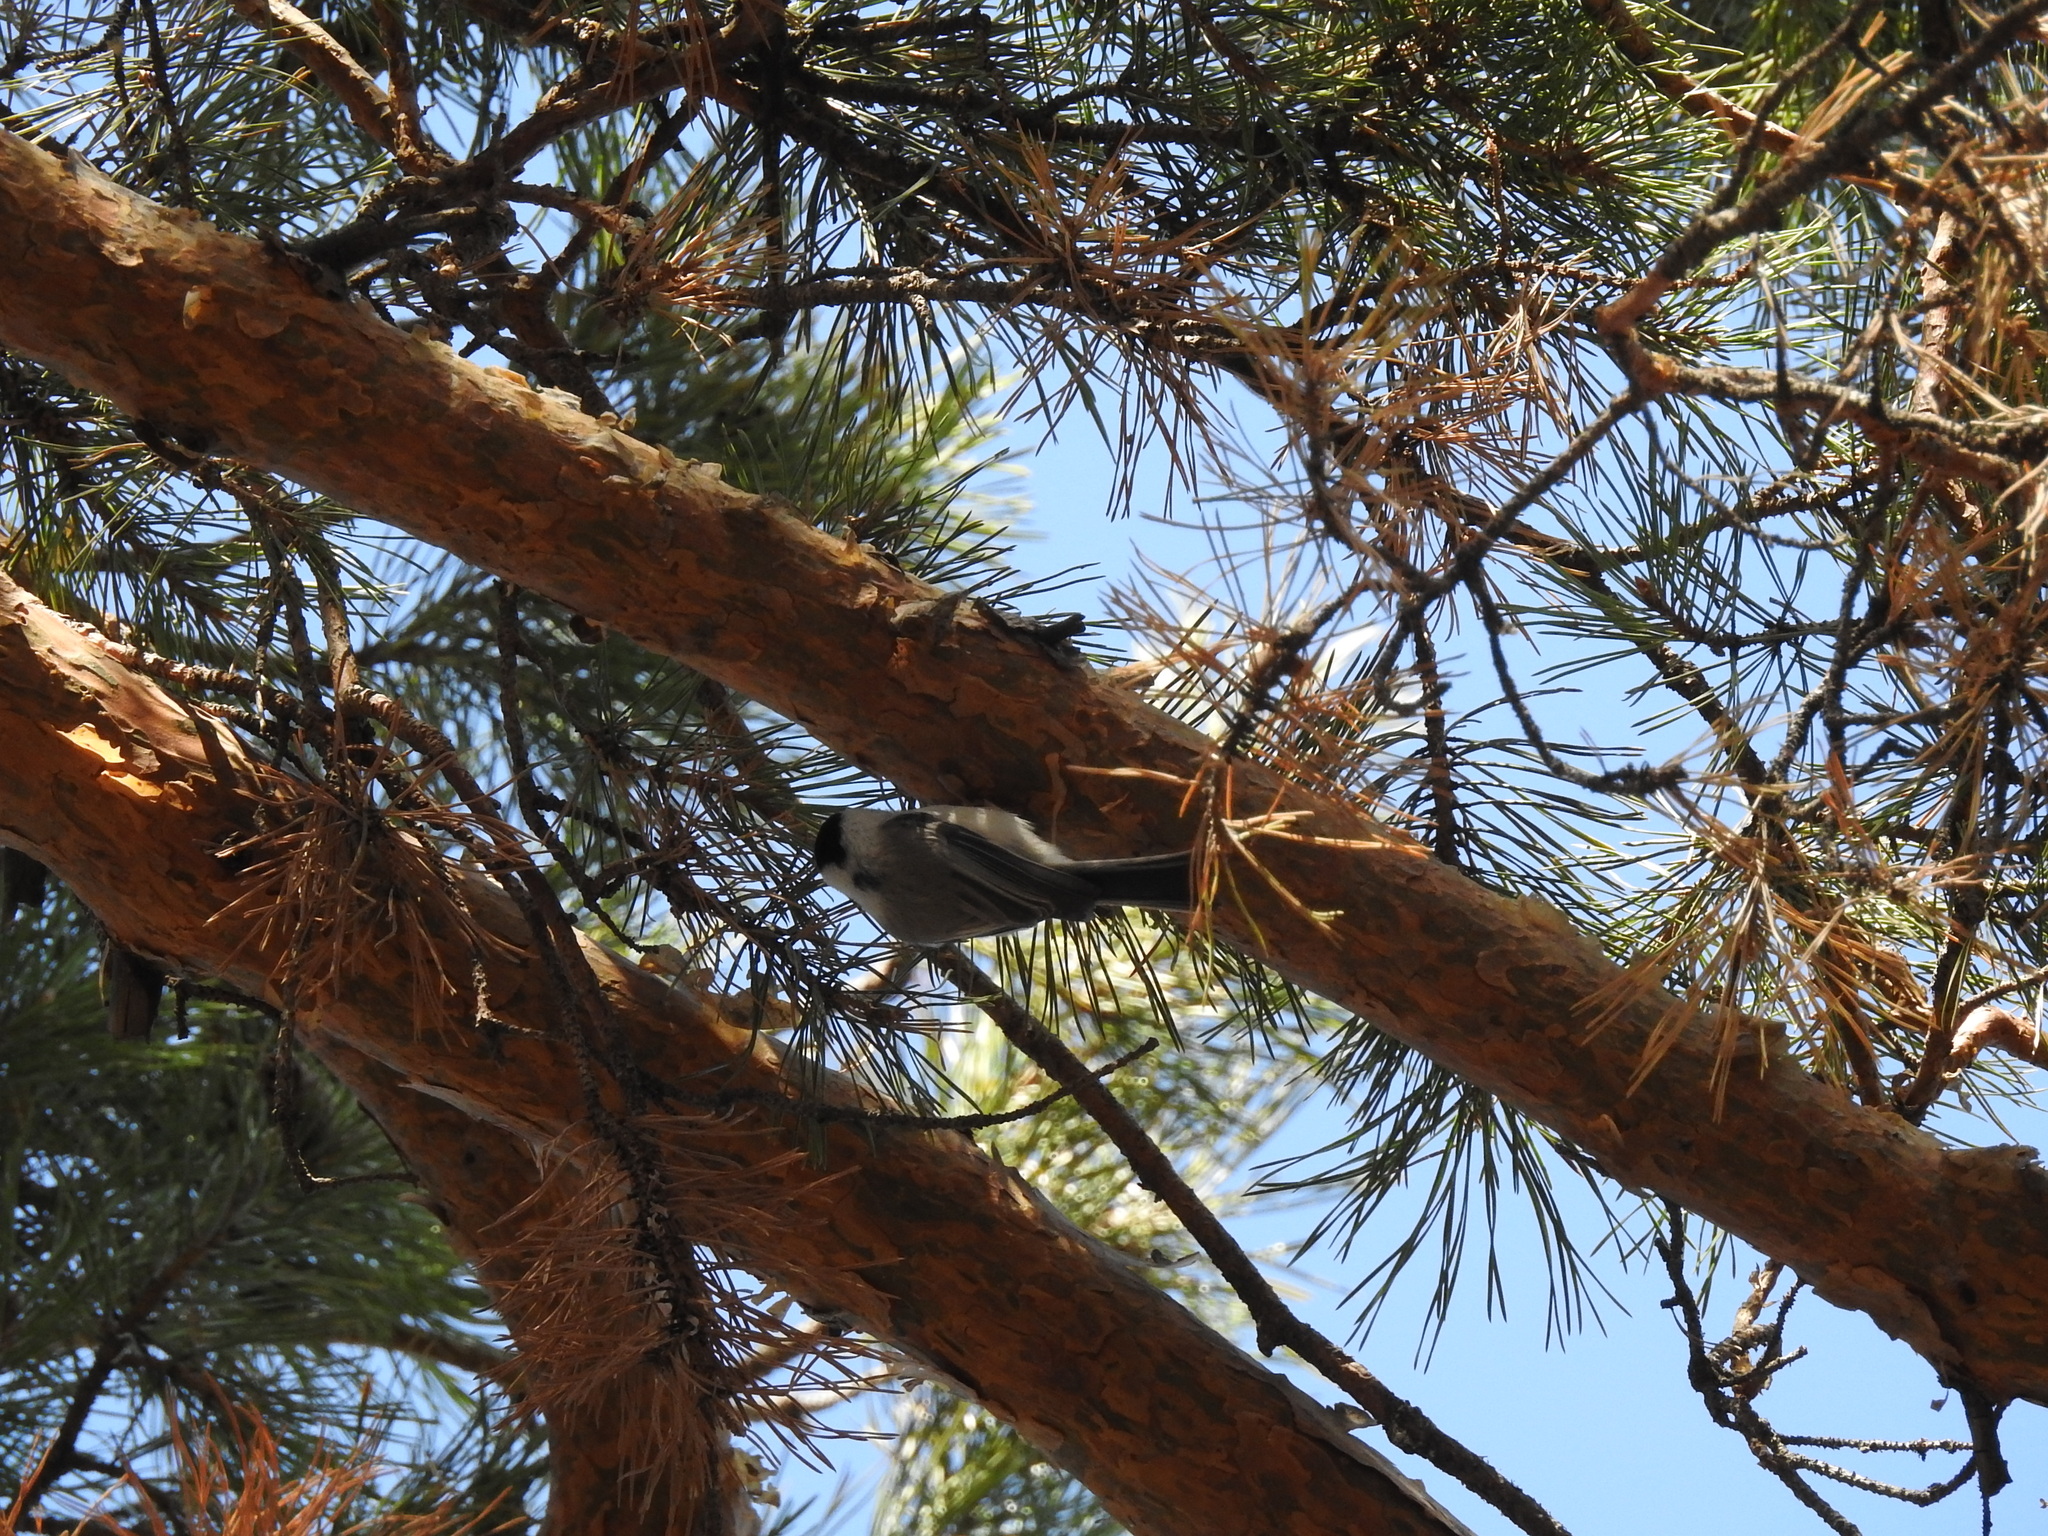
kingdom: Animalia
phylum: Chordata
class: Aves
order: Passeriformes
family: Paridae
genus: Poecile
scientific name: Poecile montanus
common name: Willow tit
